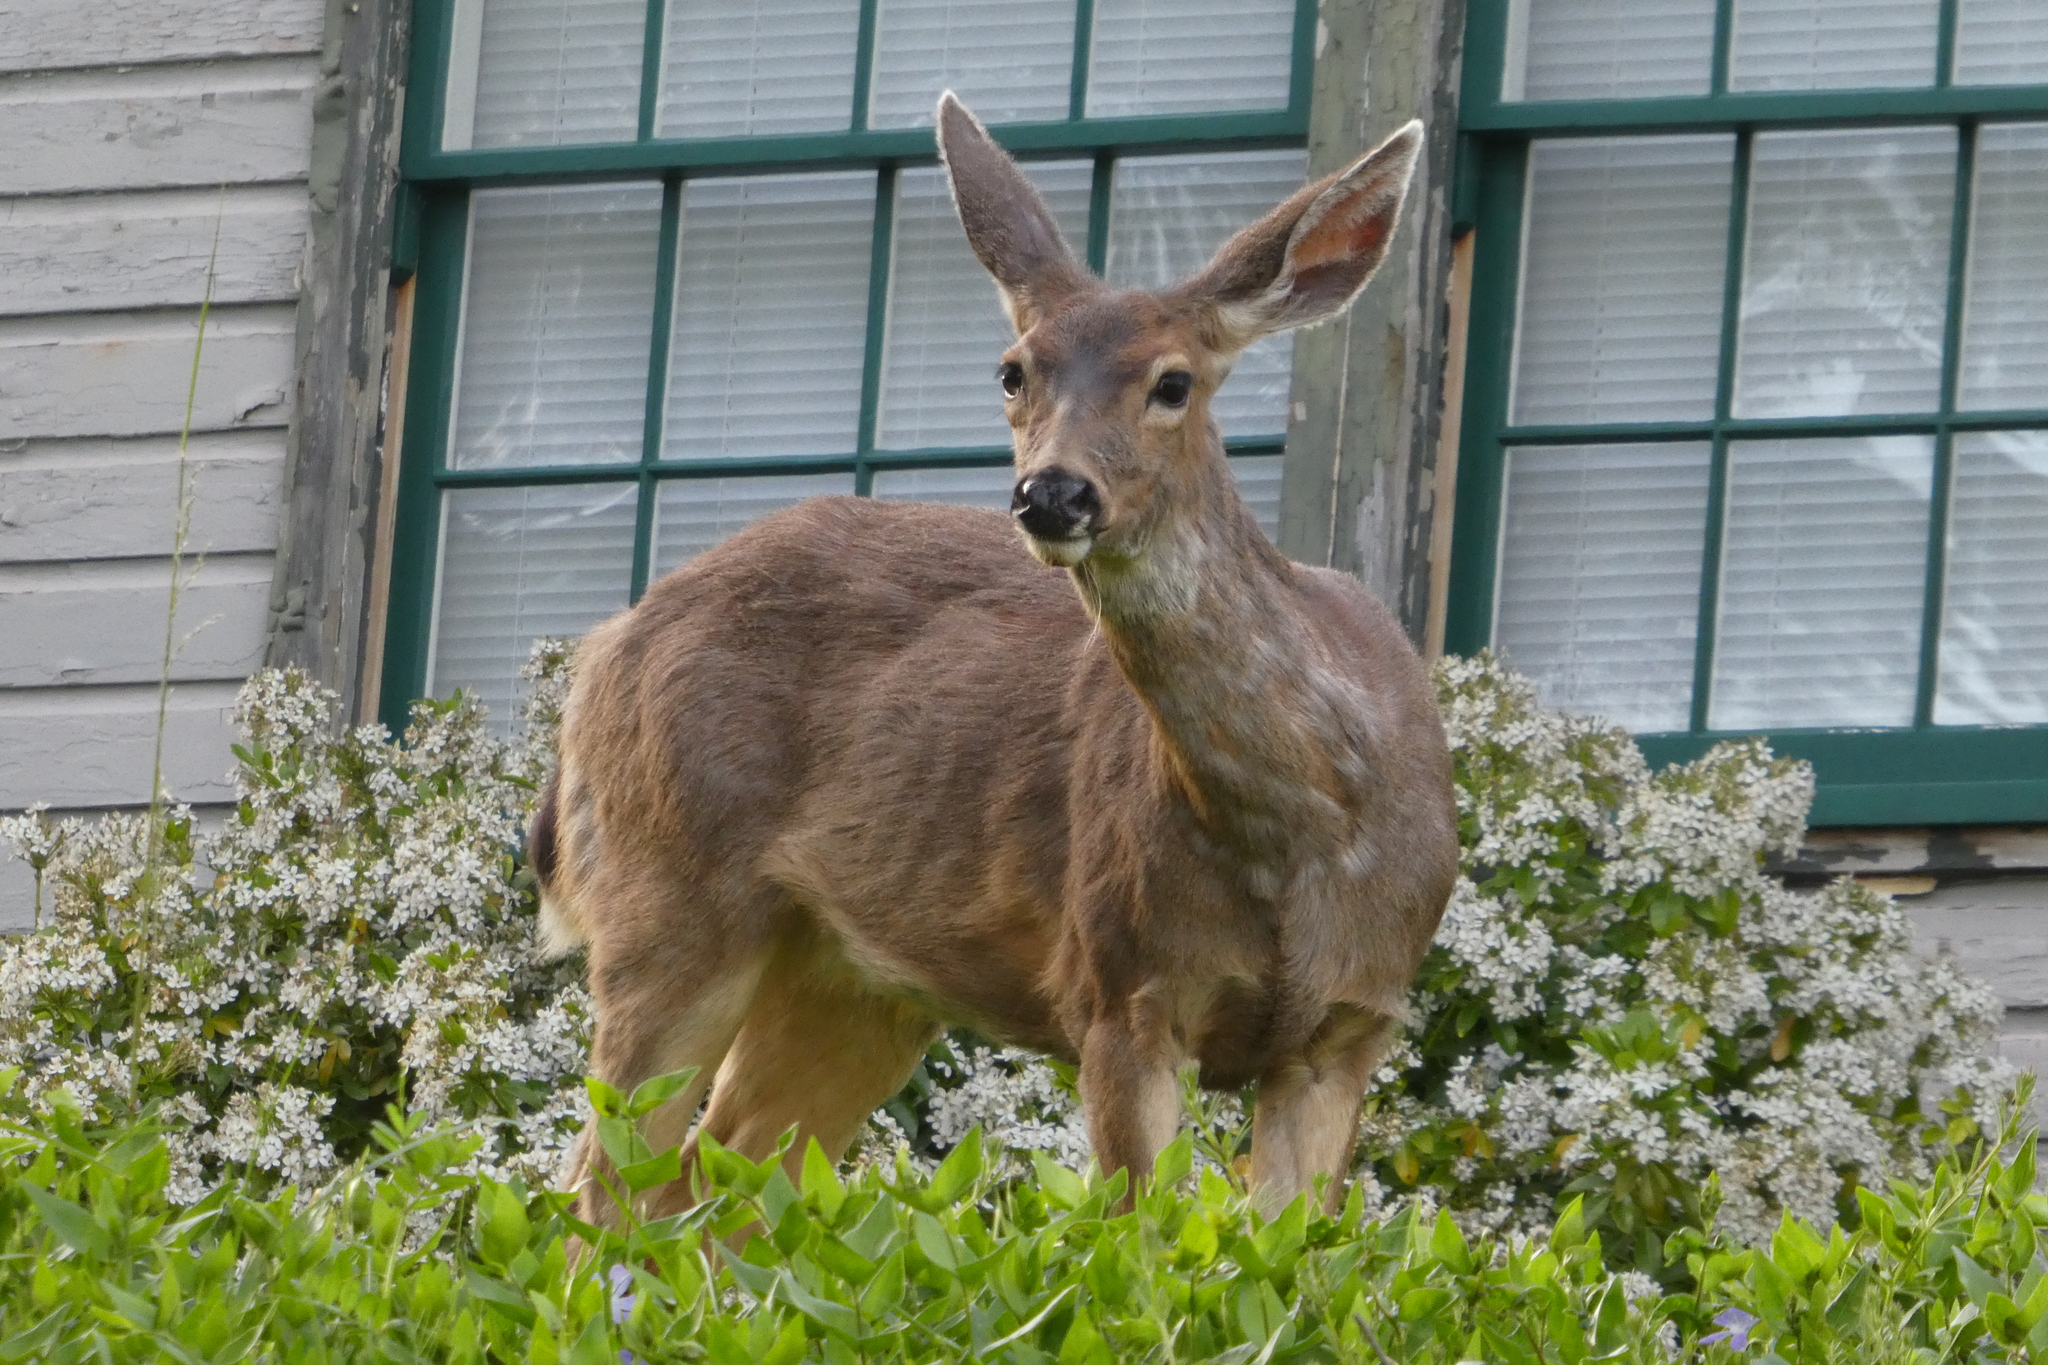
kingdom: Animalia
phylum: Chordata
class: Mammalia
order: Artiodactyla
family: Cervidae
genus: Odocoileus
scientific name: Odocoileus hemionus
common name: Mule deer
